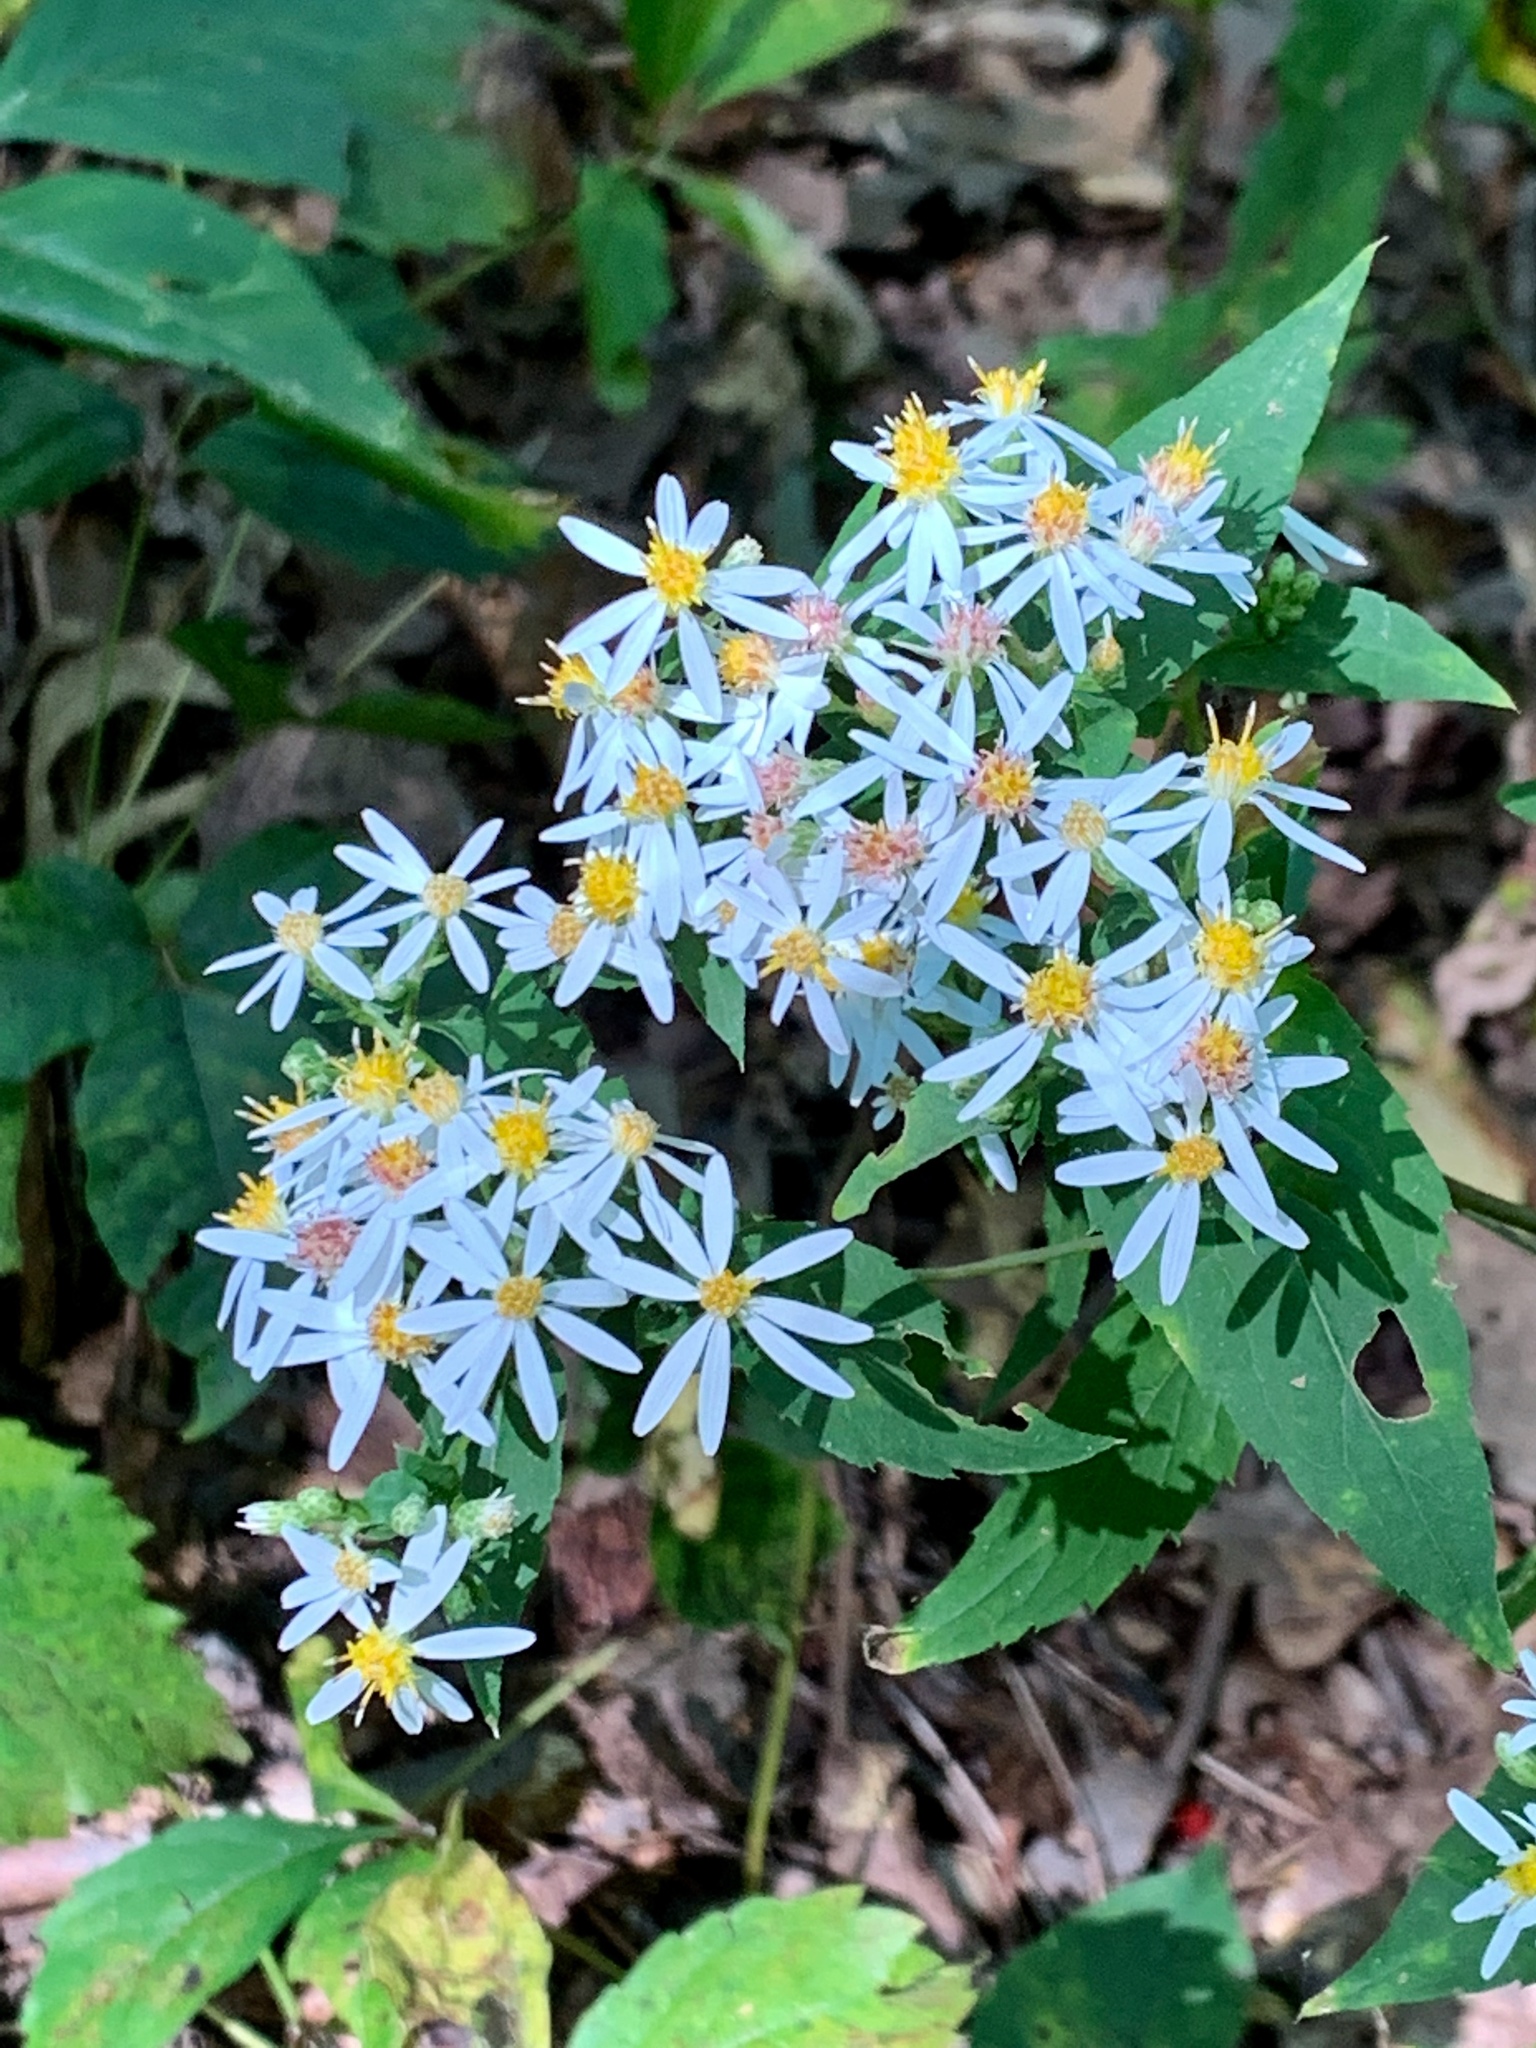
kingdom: Plantae
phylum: Tracheophyta
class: Magnoliopsida
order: Asterales
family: Asteraceae
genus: Eurybia
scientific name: Eurybia divaricata
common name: White wood aster
